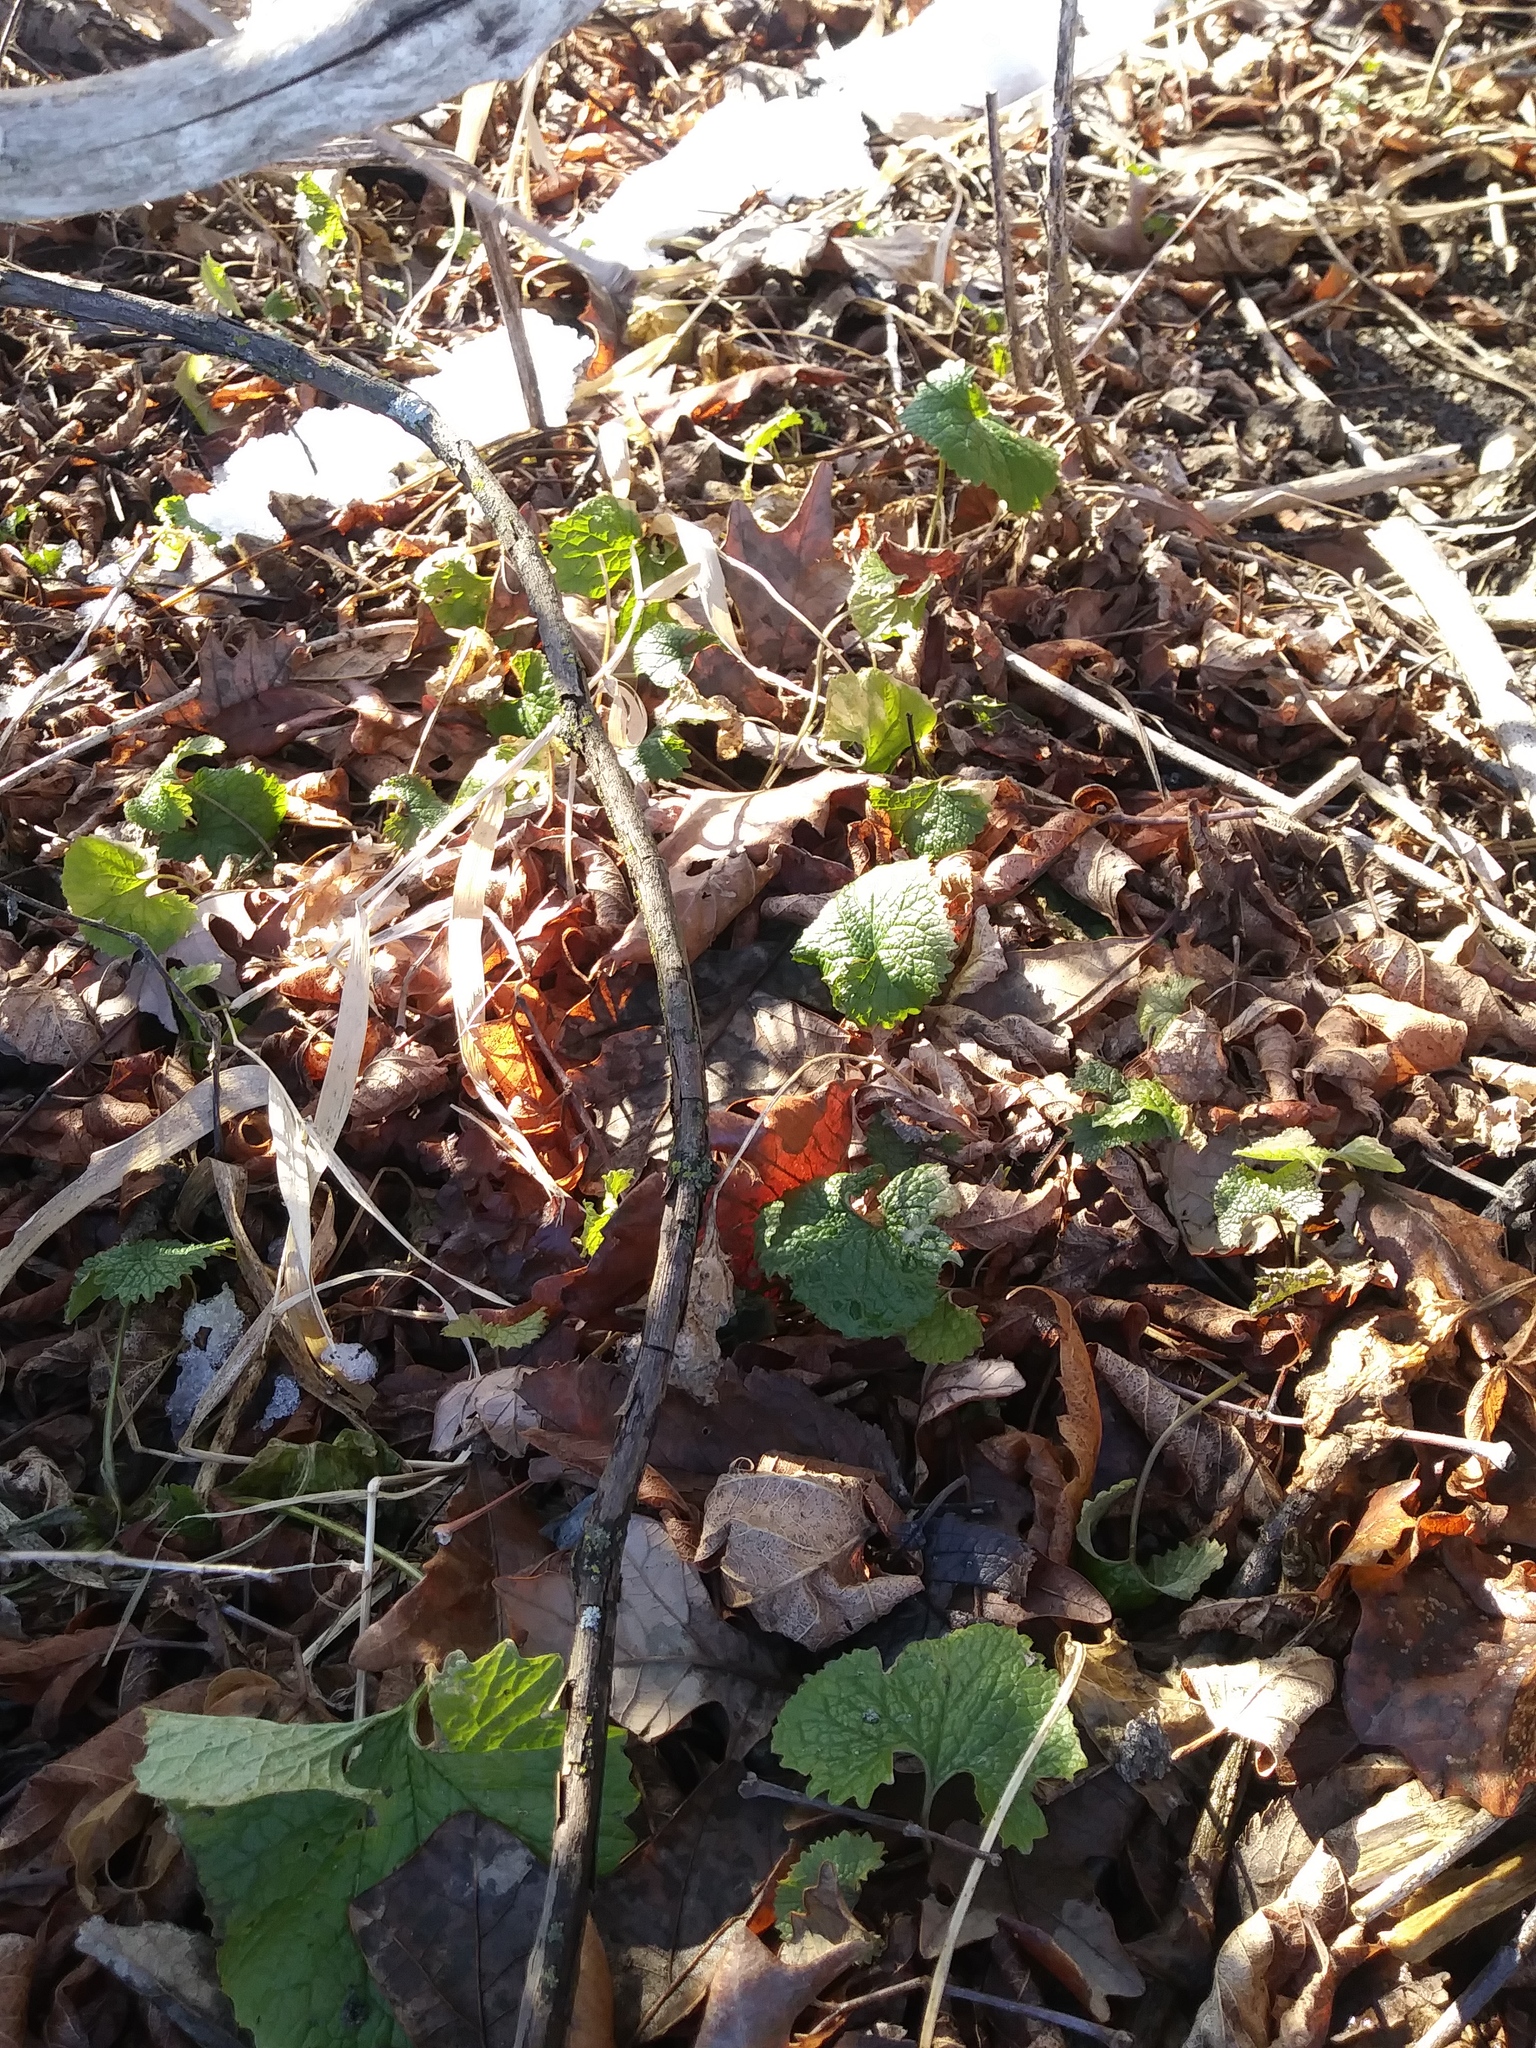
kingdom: Plantae
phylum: Tracheophyta
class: Magnoliopsida
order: Brassicales
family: Brassicaceae
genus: Alliaria
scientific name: Alliaria petiolata
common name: Garlic mustard
